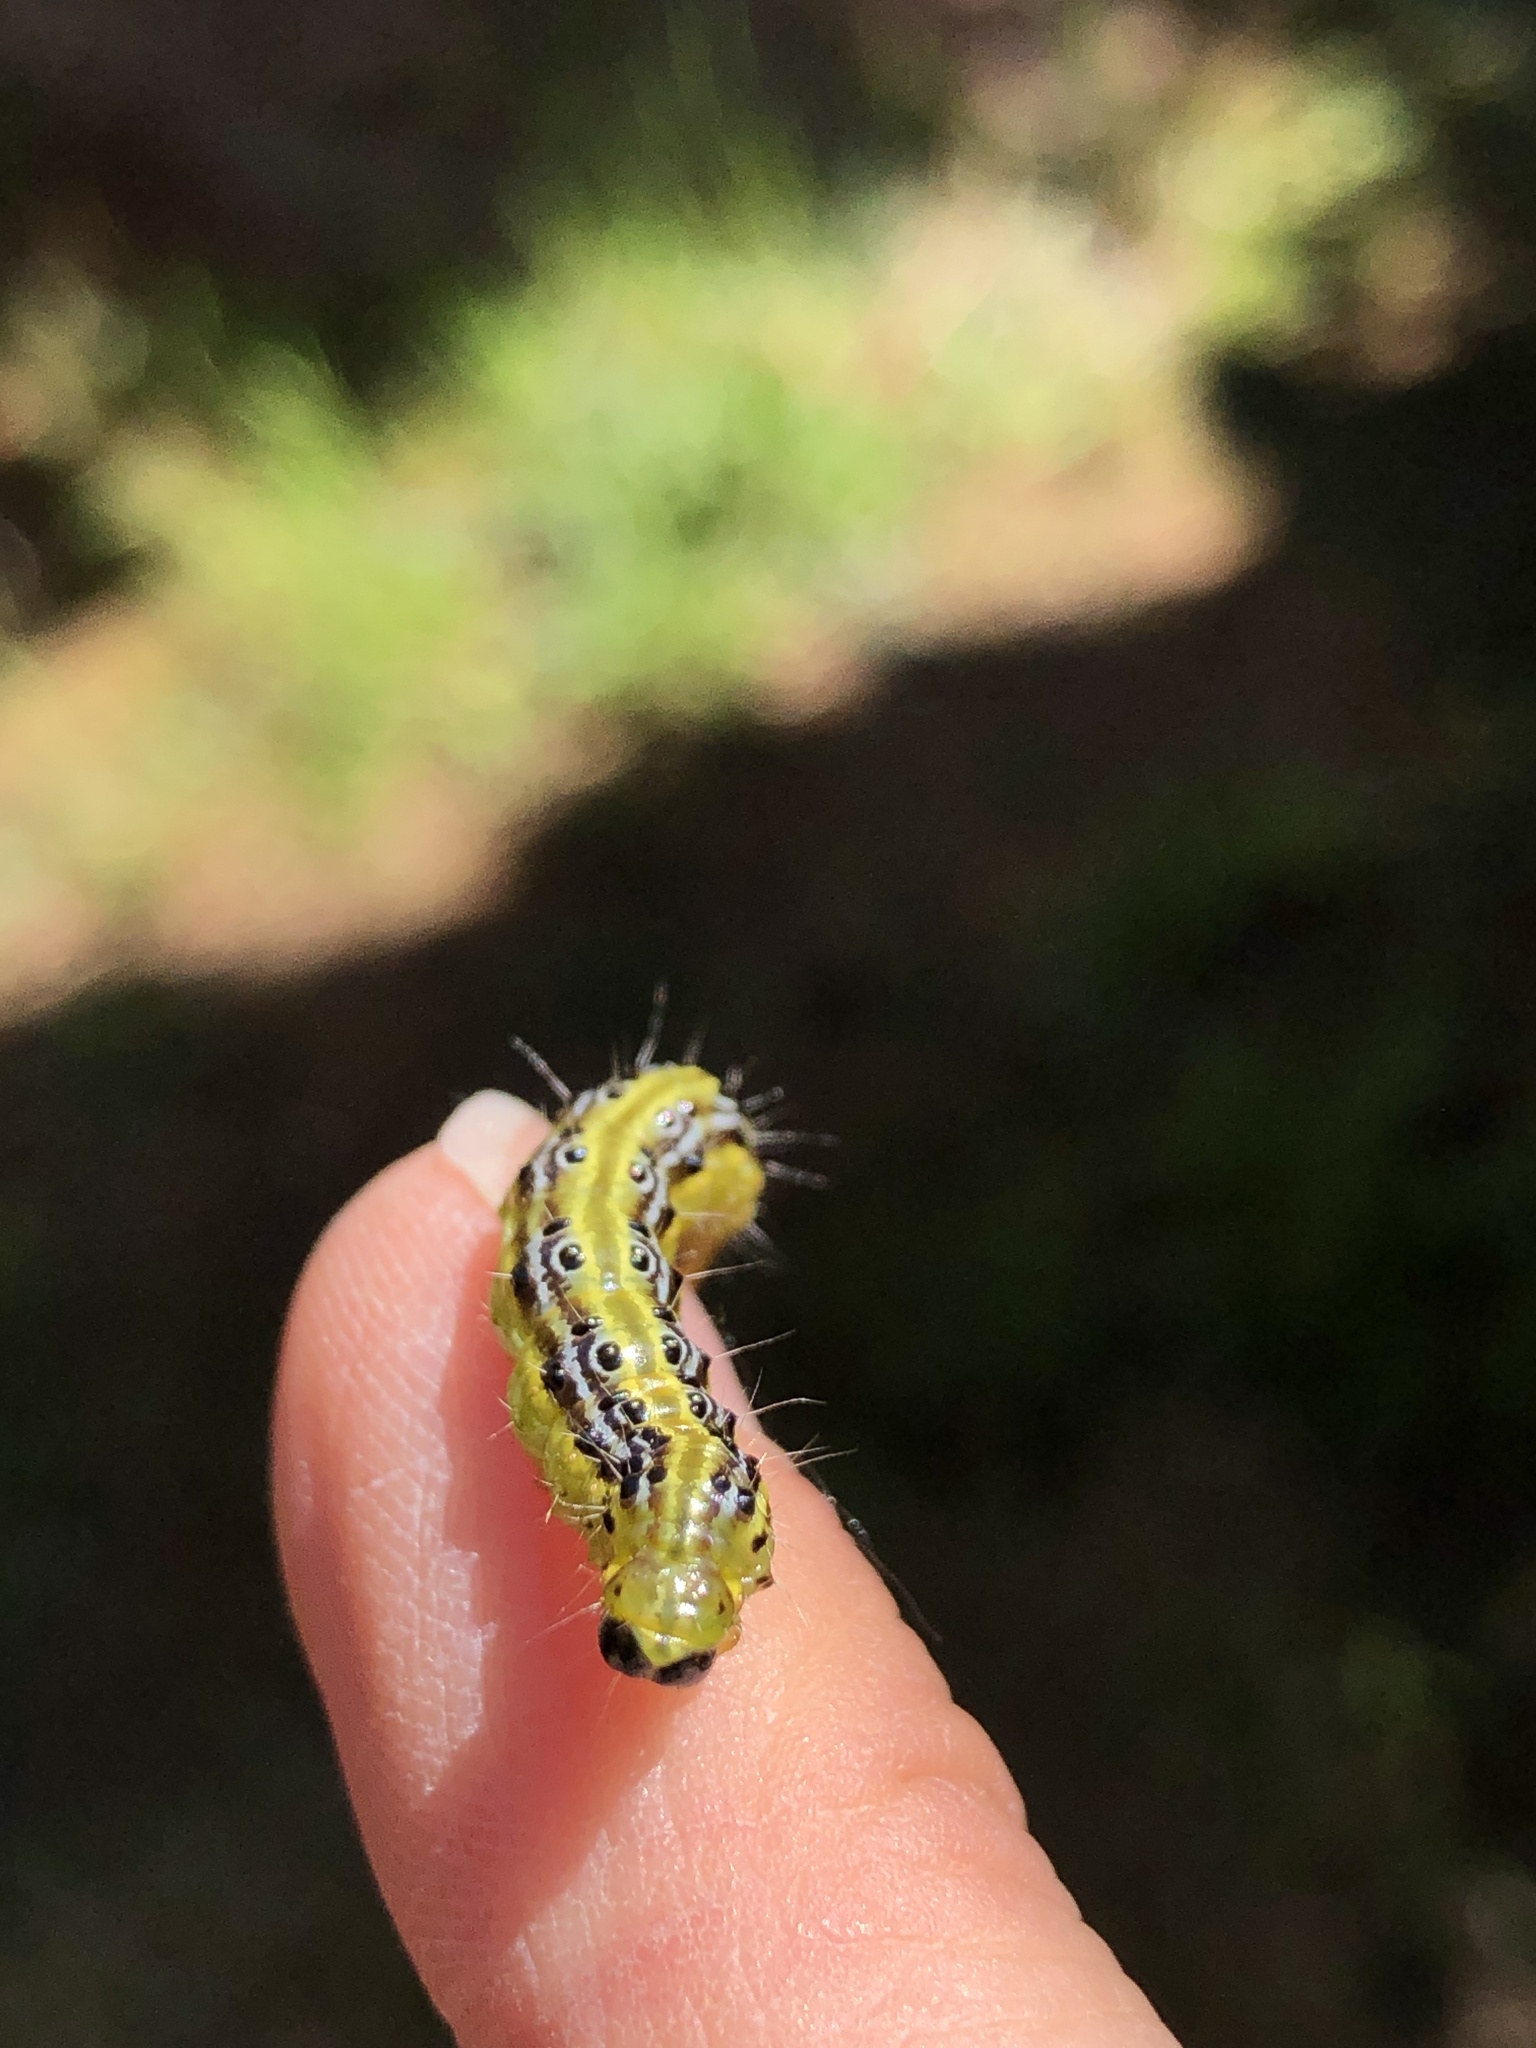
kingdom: Animalia
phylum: Arthropoda
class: Insecta
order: Lepidoptera
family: Crambidae
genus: Cydalima
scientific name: Cydalima perspectalis
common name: Box tree moth
